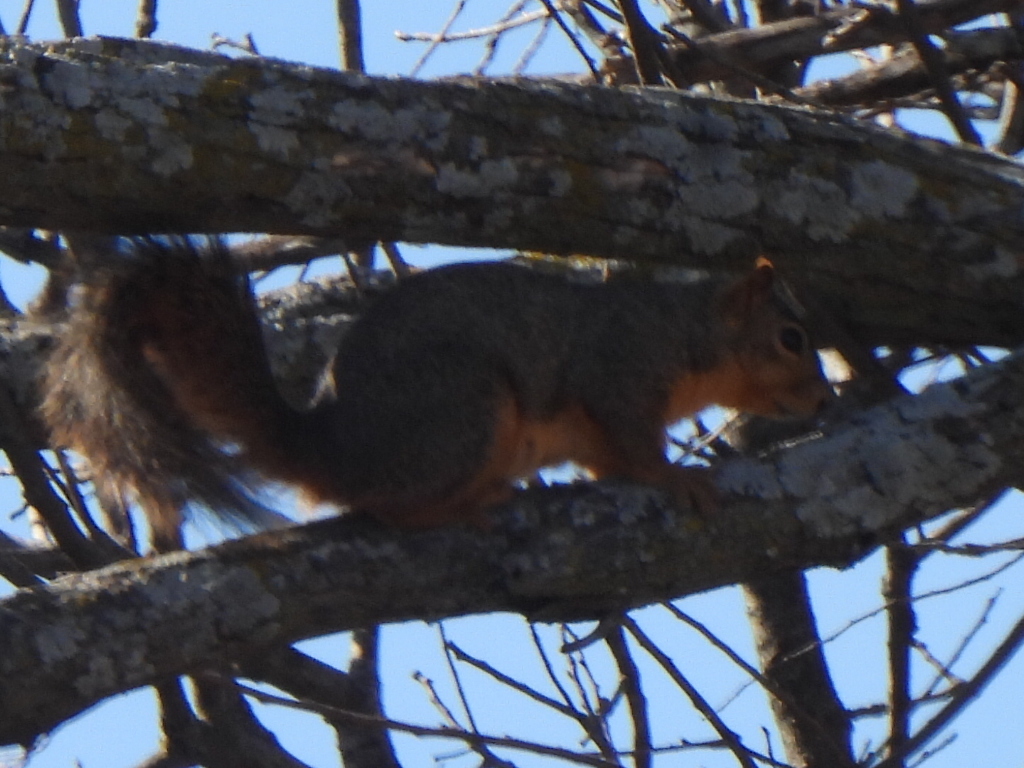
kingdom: Animalia
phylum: Chordata
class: Mammalia
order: Rodentia
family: Sciuridae
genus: Sciurus
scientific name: Sciurus niger
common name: Fox squirrel
